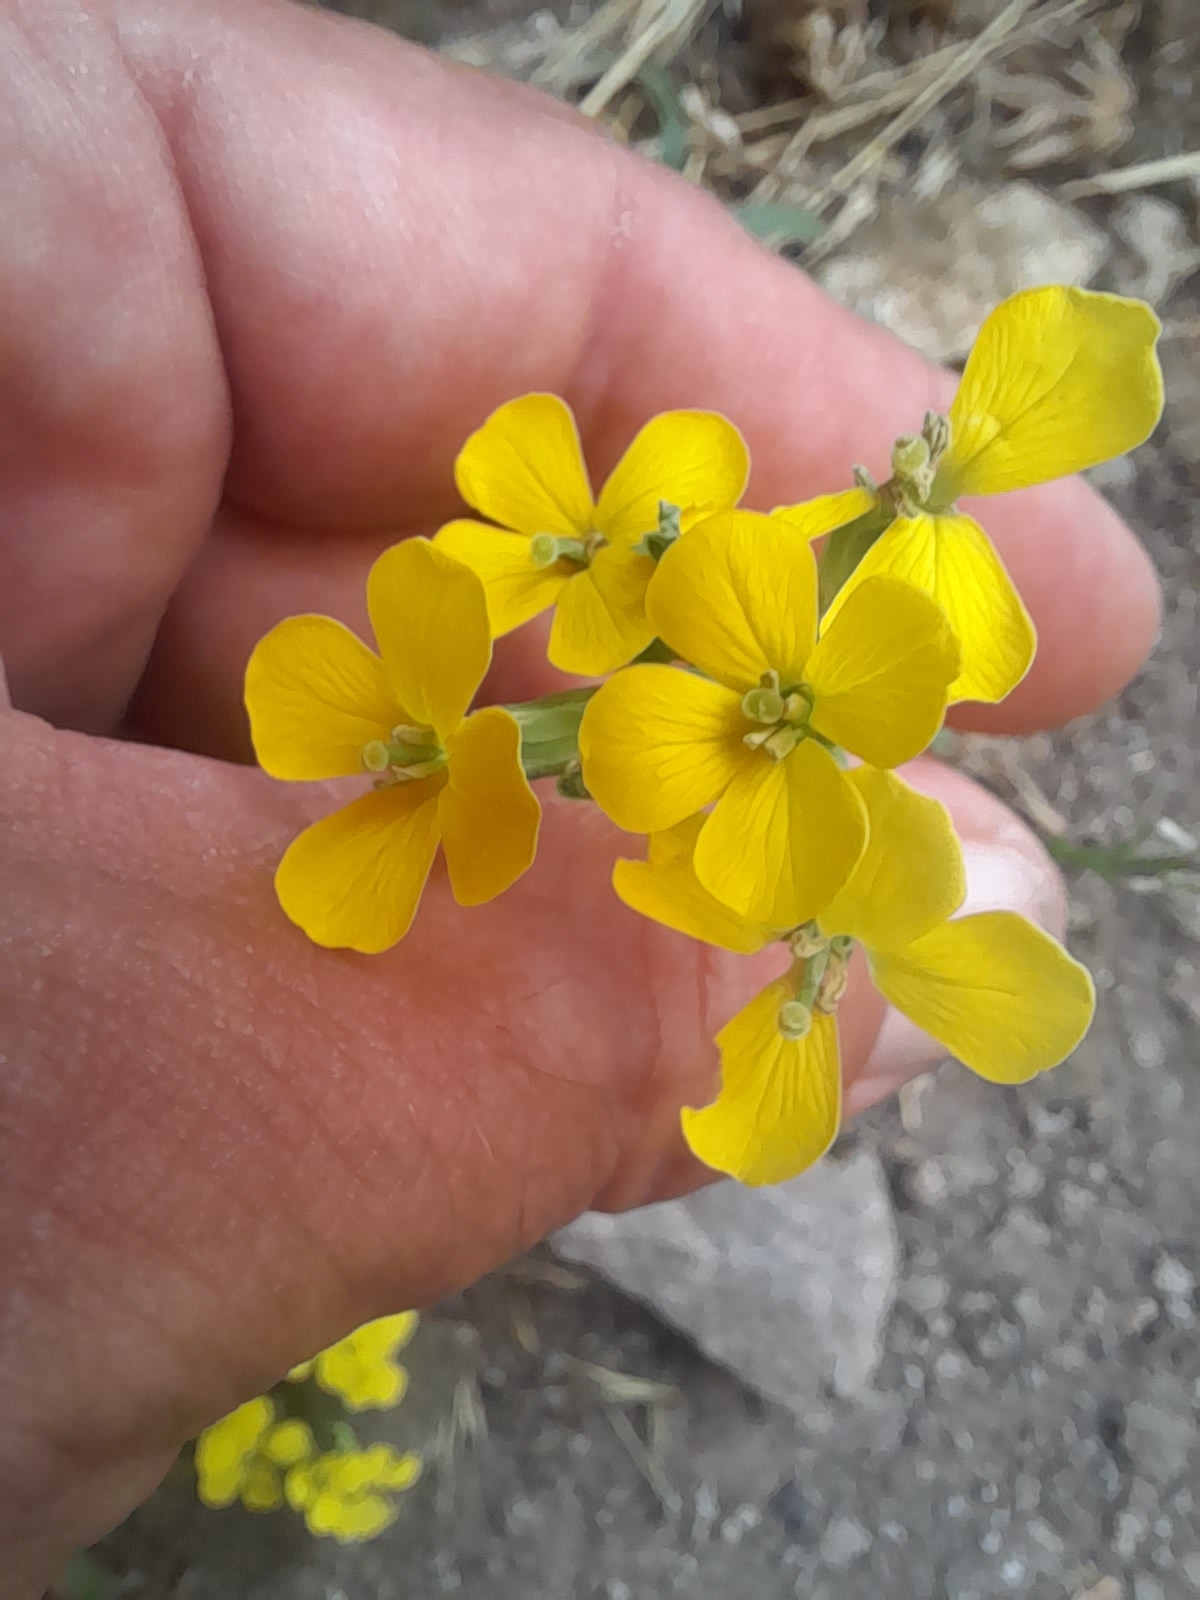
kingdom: Plantae
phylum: Tracheophyta
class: Magnoliopsida
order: Brassicales
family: Brassicaceae
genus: Erysimum
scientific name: Erysimum maremmanum
